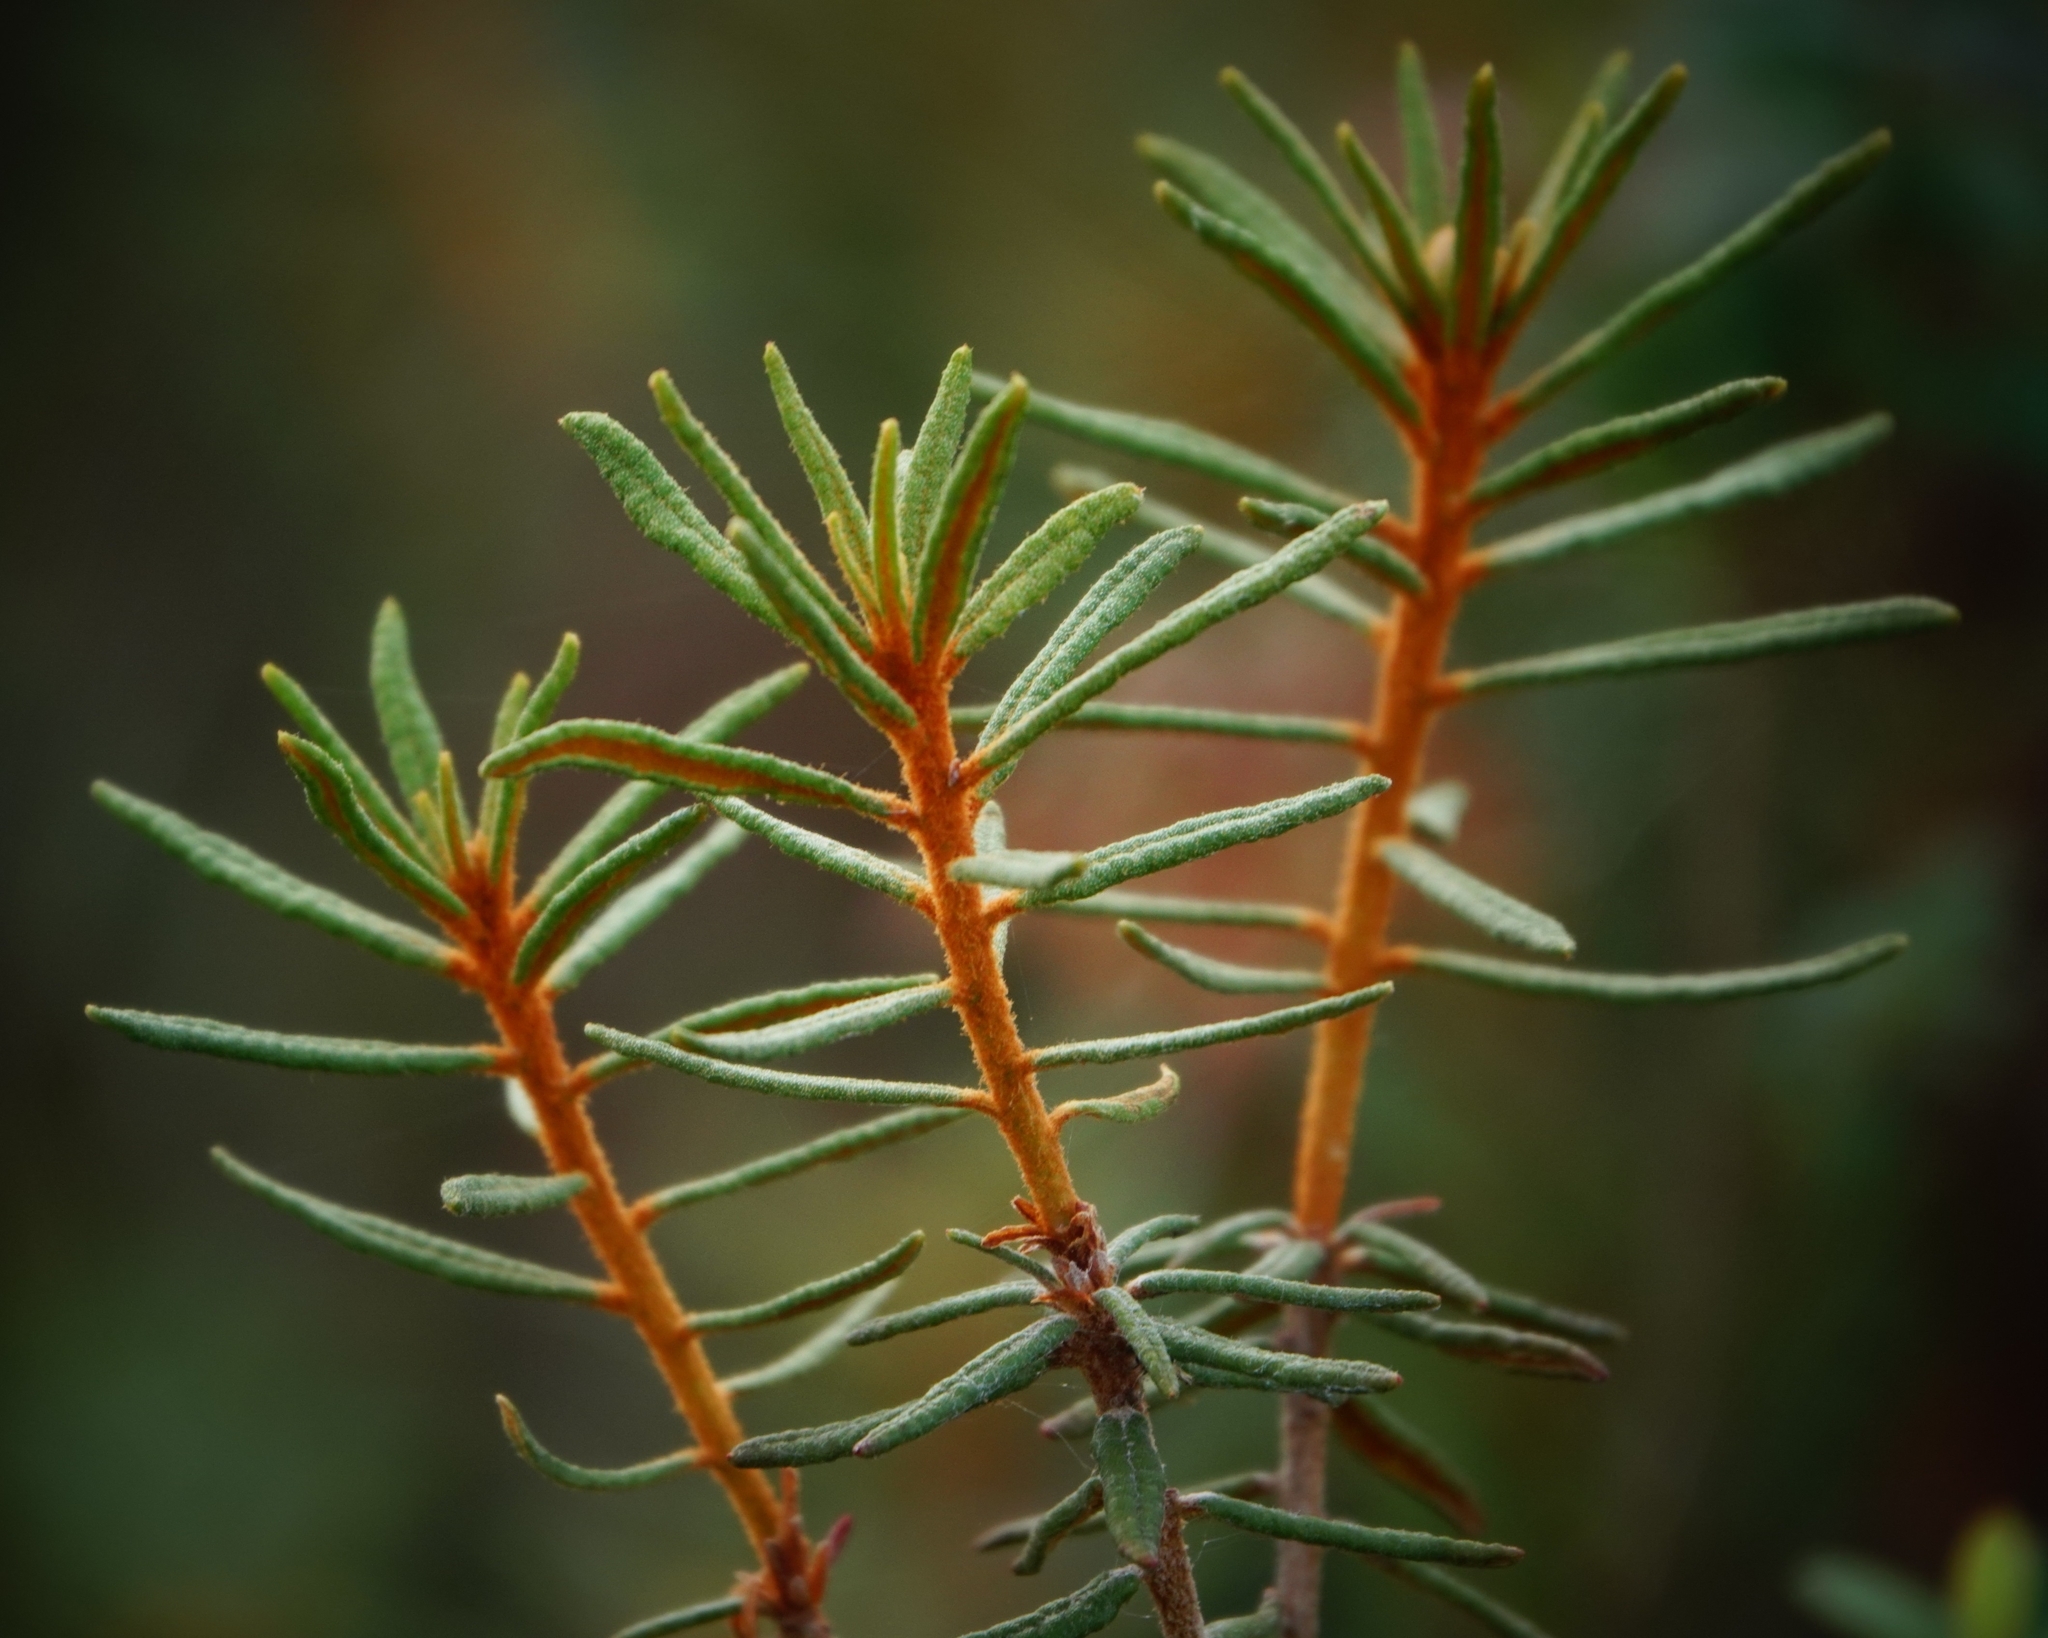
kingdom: Plantae
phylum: Tracheophyta
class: Magnoliopsida
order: Ericales
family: Ericaceae
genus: Rhododendron
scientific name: Rhododendron tomentosum
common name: Marsh labrador tea
